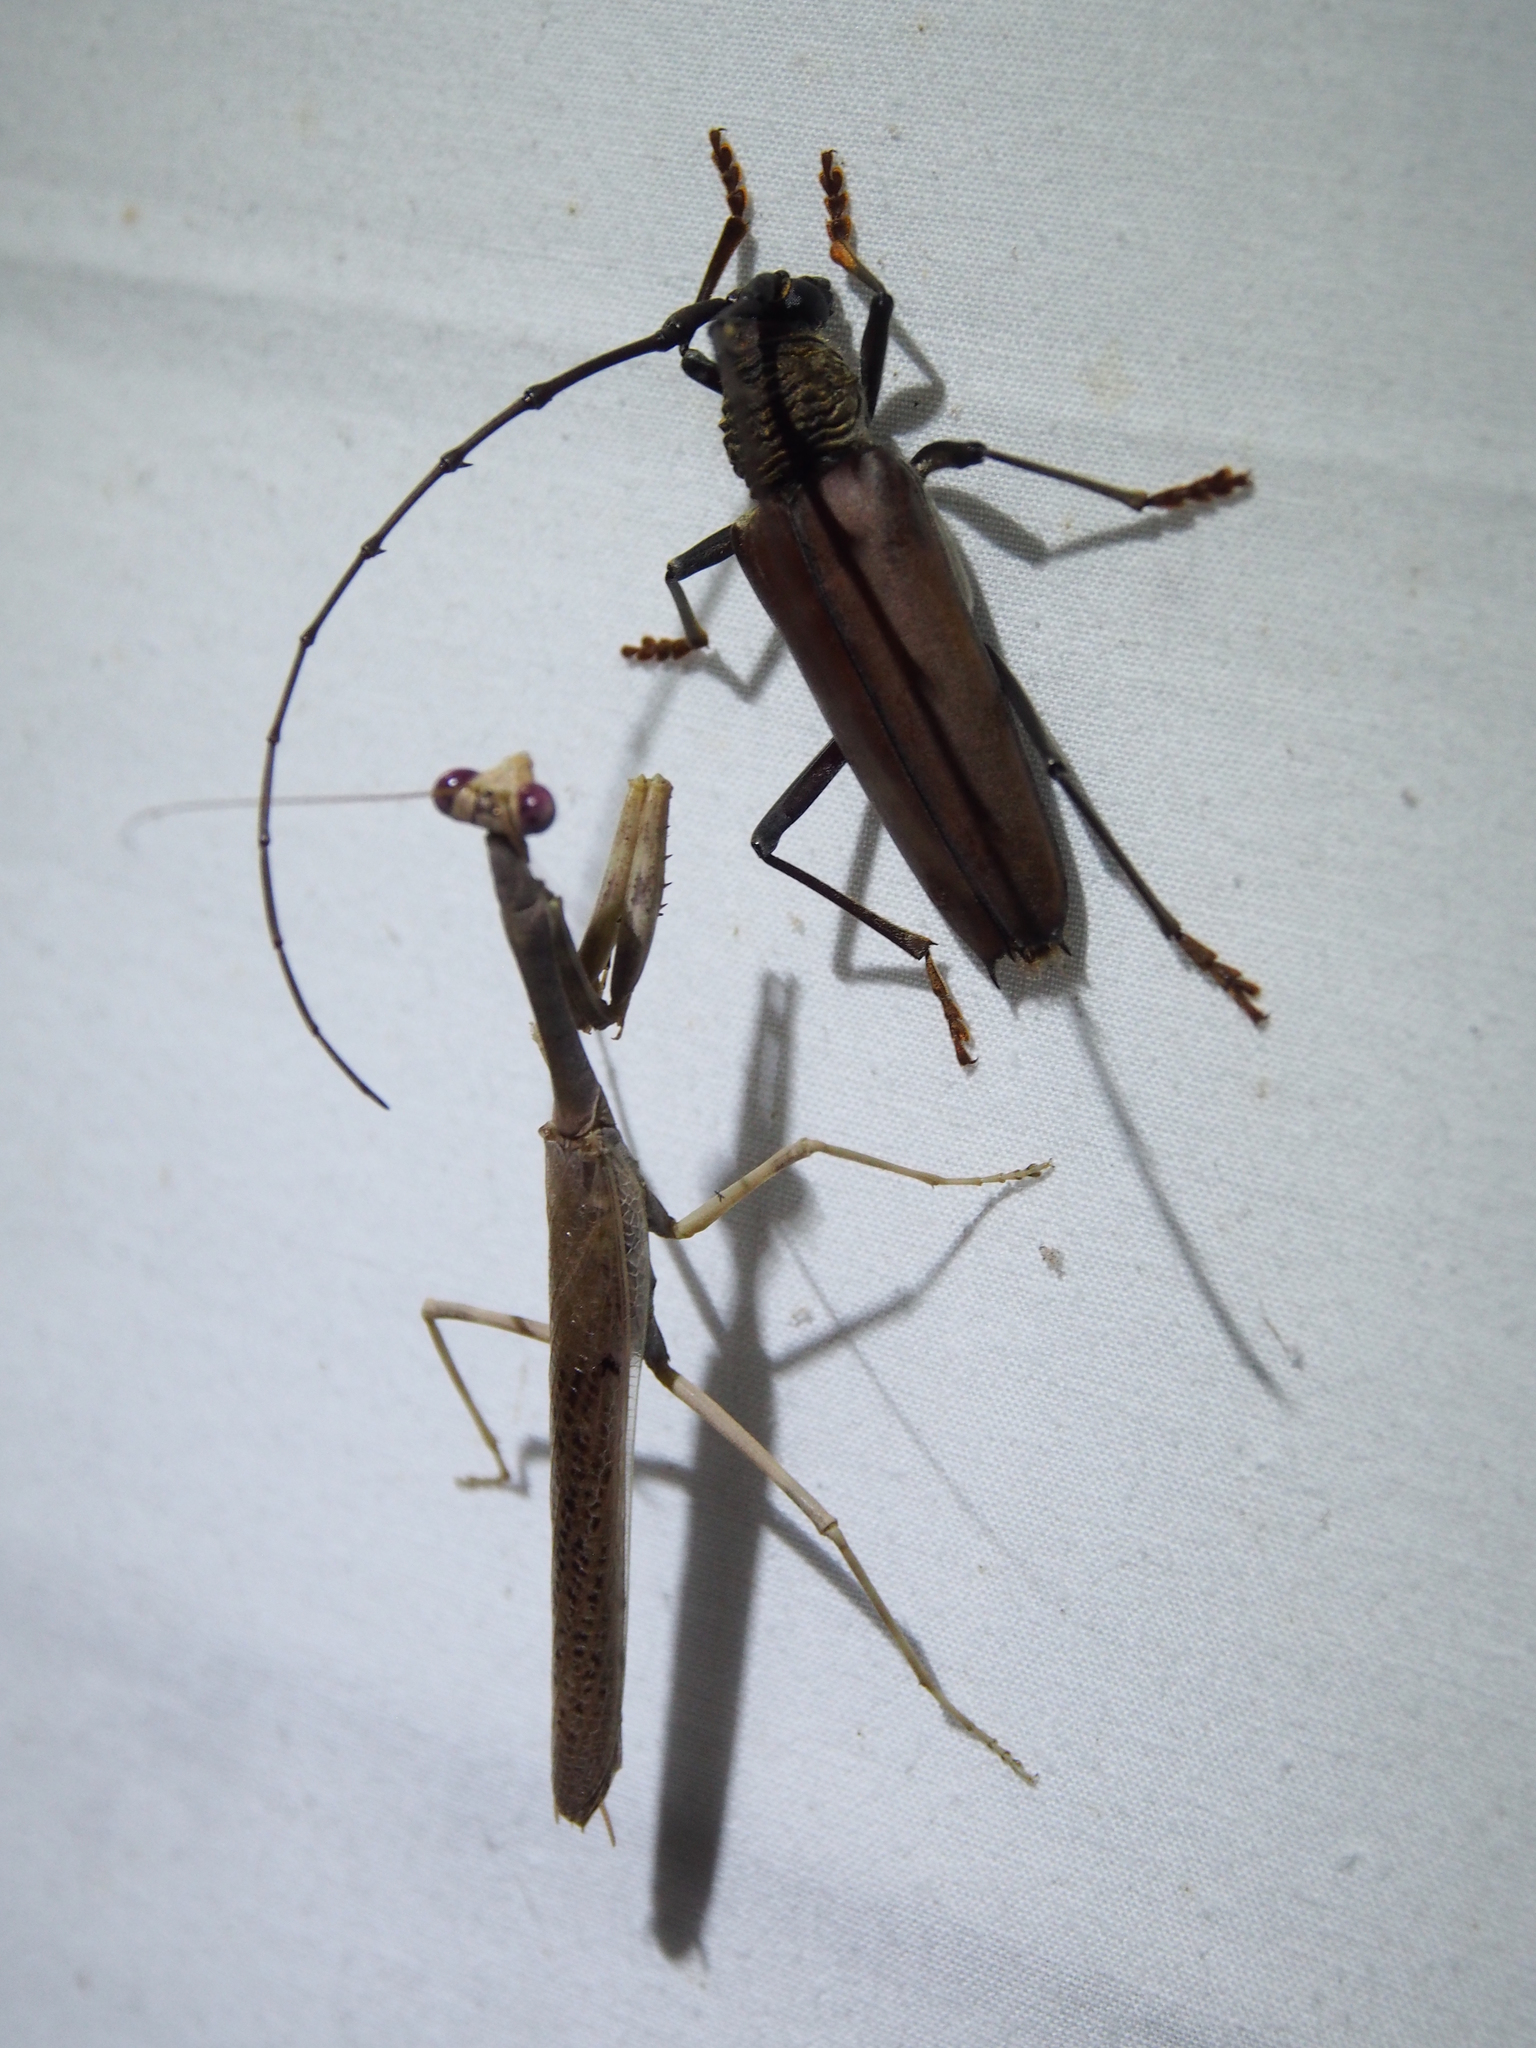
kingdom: Animalia
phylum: Arthropoda
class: Insecta
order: Coleoptera
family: Cerambycidae
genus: Juiaparus
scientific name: Juiaparus mexicanus
